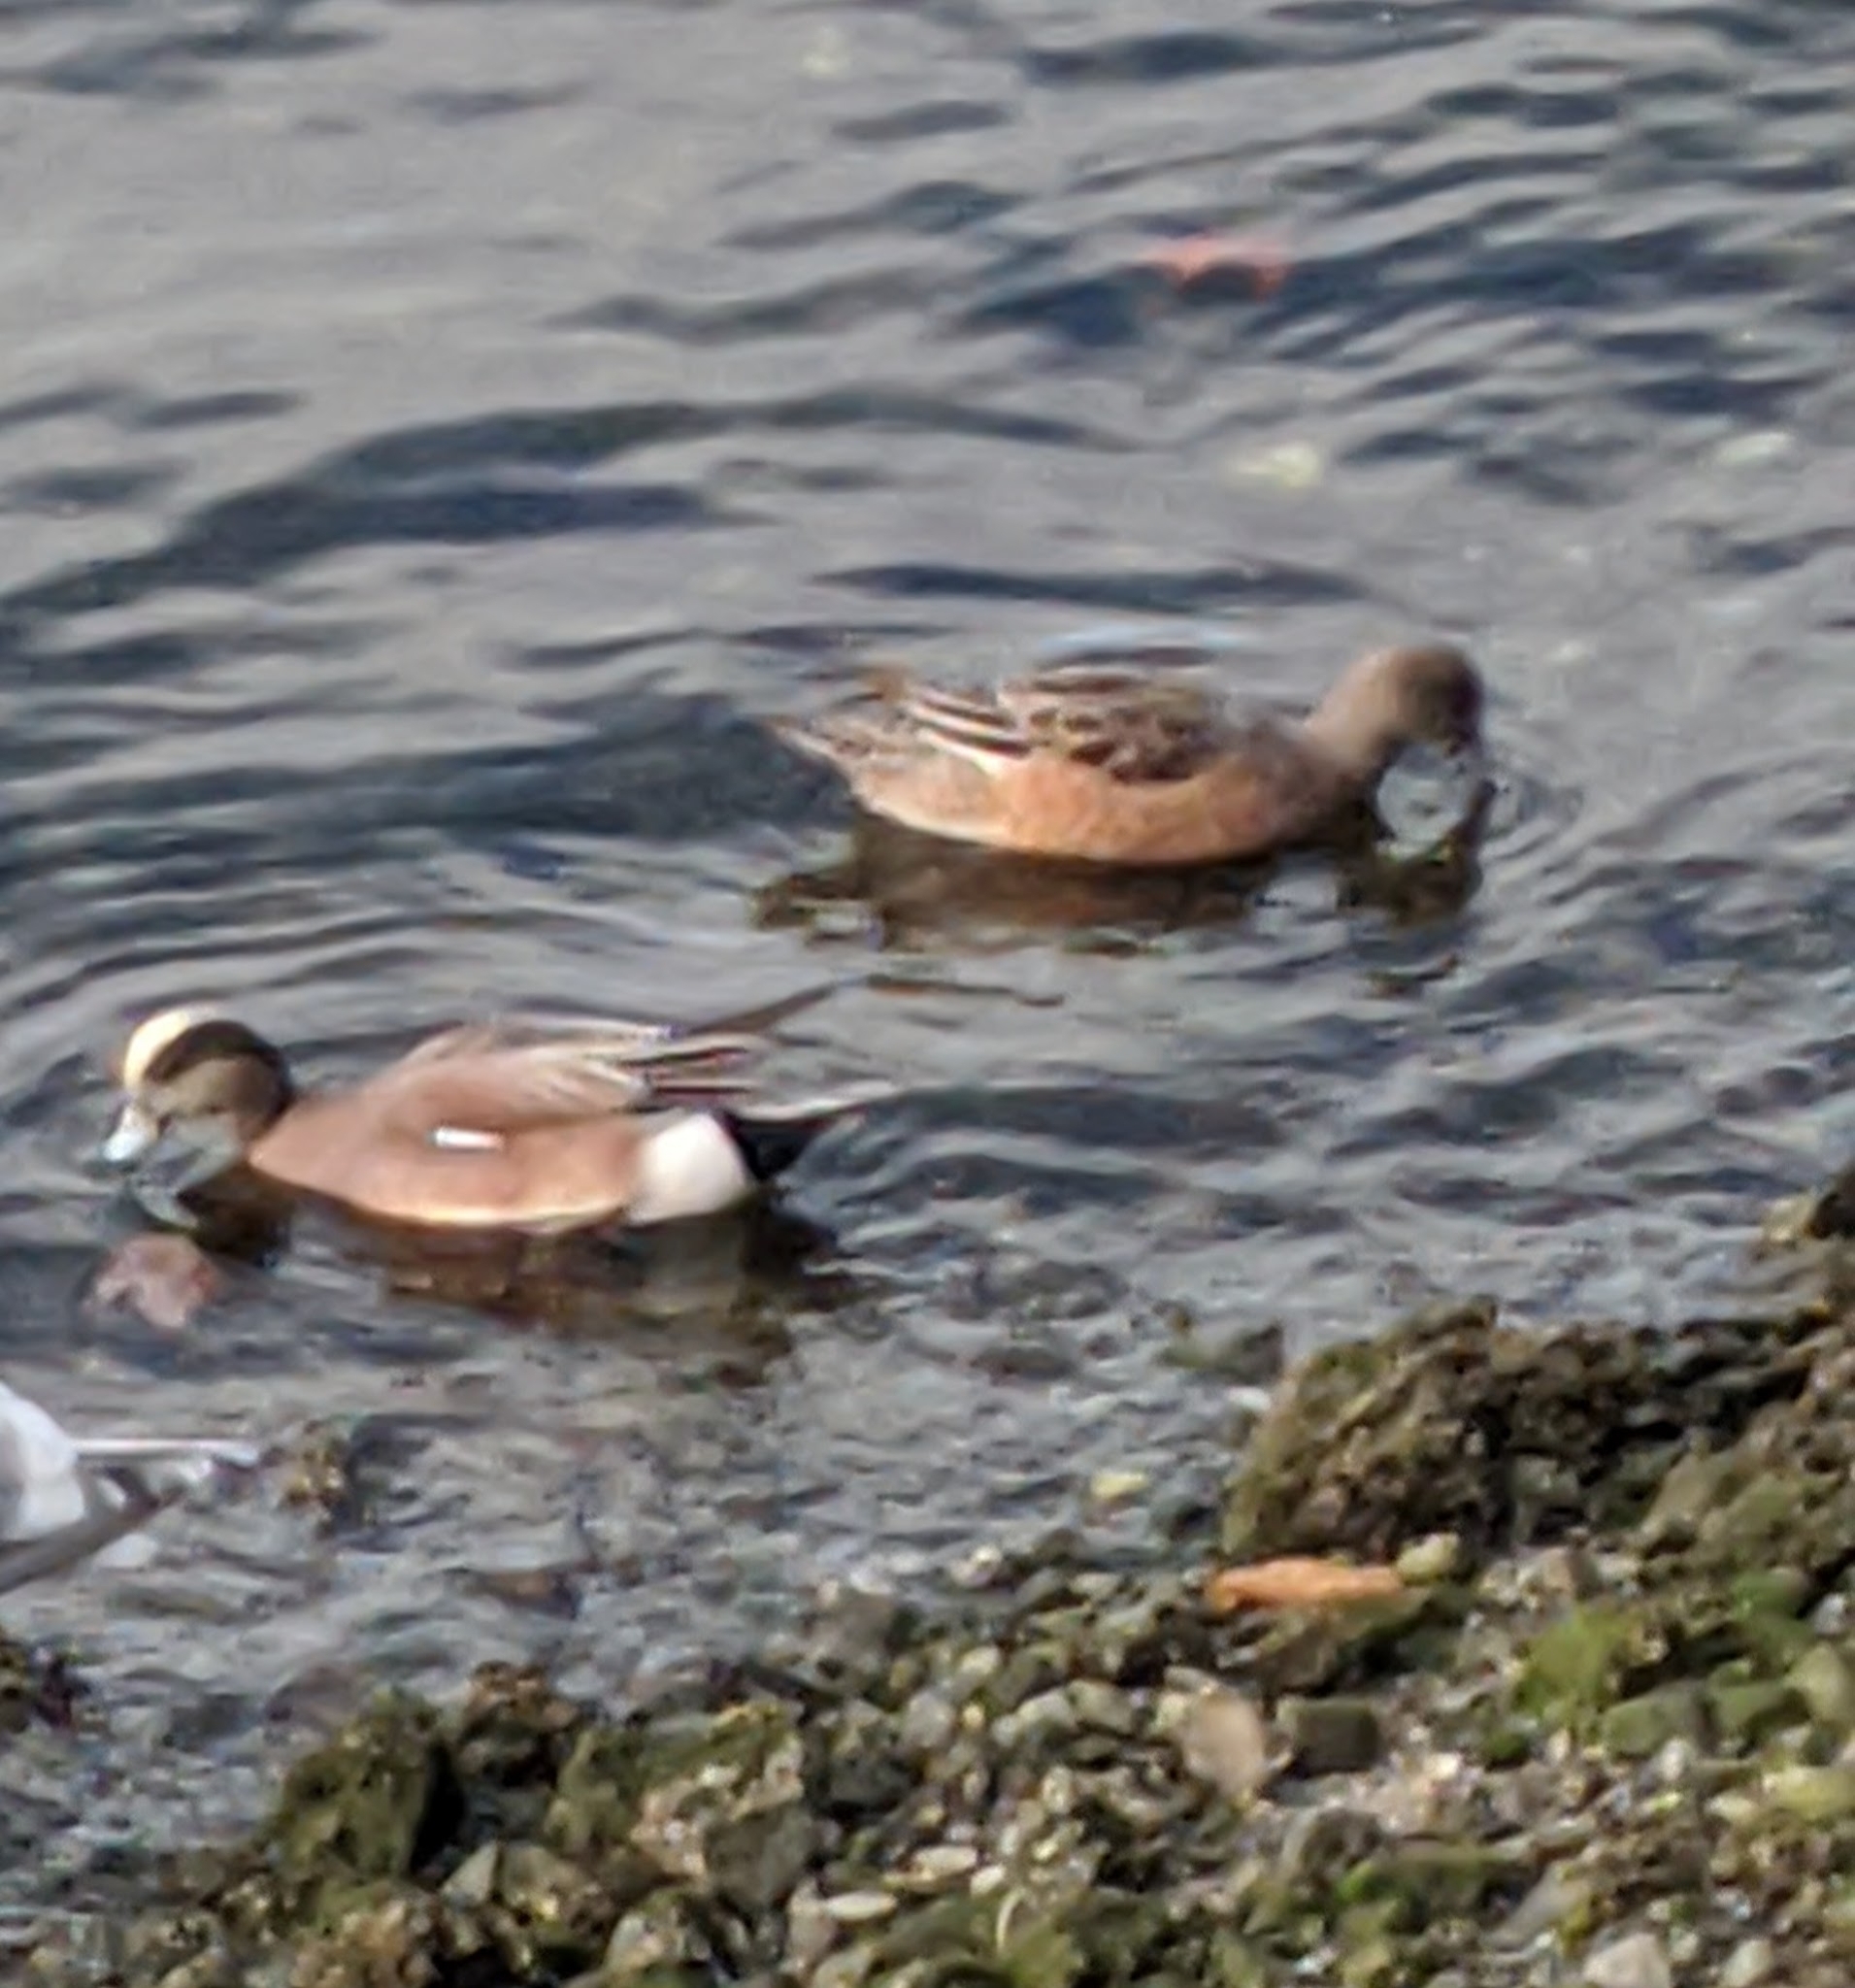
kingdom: Animalia
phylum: Chordata
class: Aves
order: Anseriformes
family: Anatidae
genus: Mareca
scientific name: Mareca americana
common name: American wigeon
